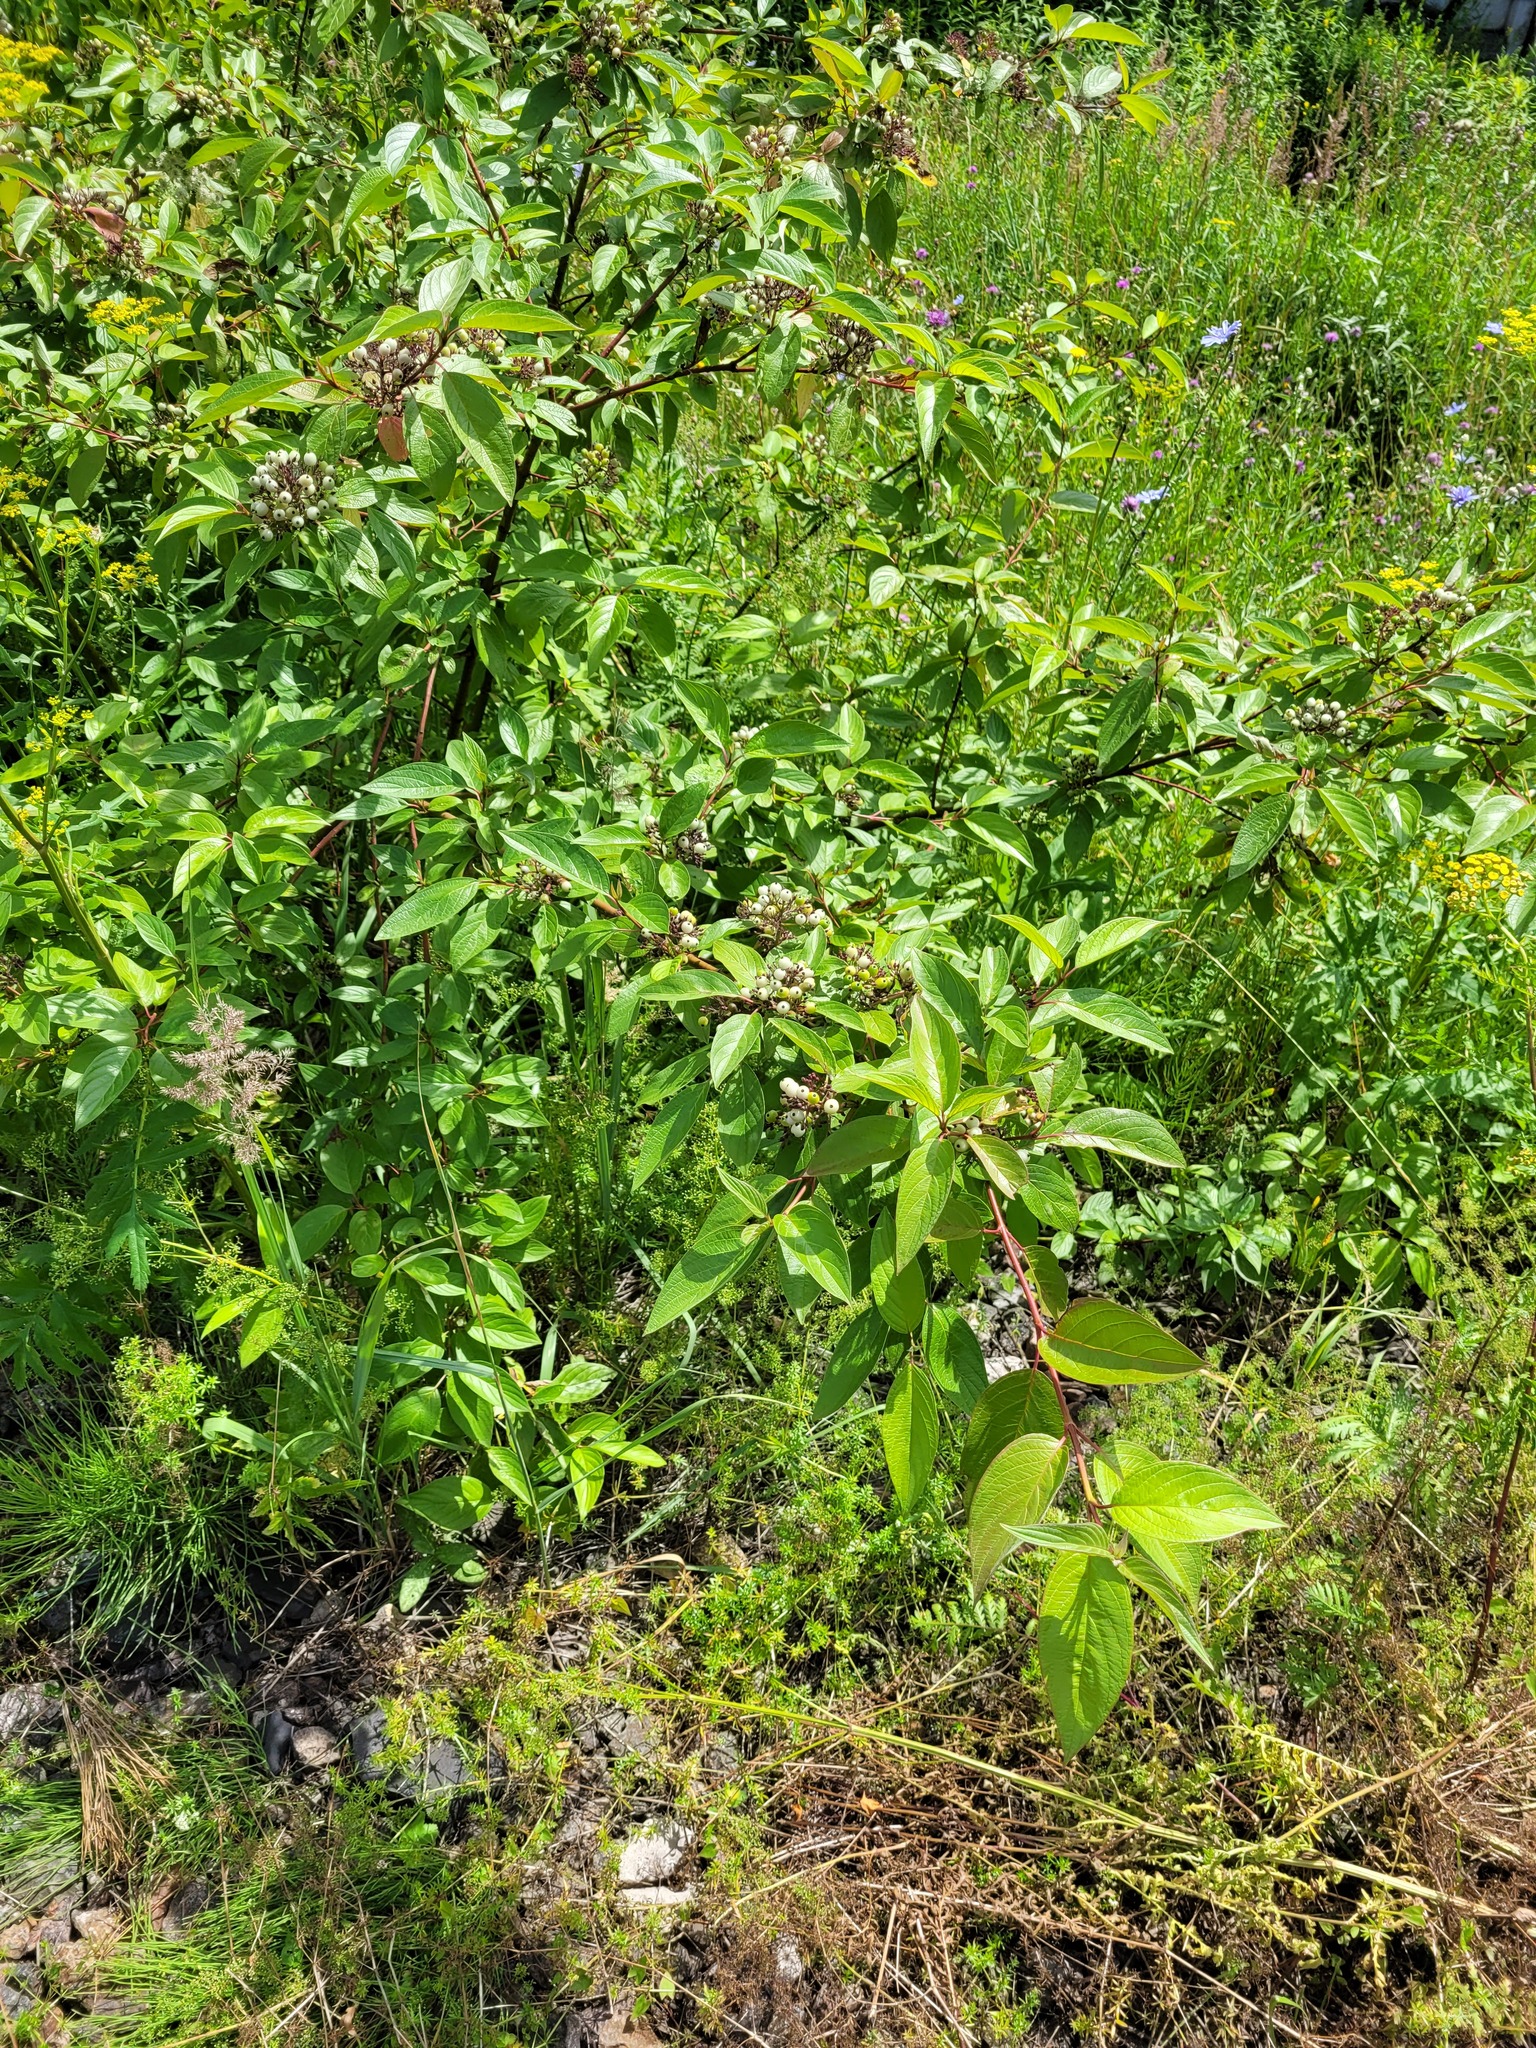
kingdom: Plantae
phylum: Tracheophyta
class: Magnoliopsida
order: Cornales
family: Cornaceae
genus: Cornus
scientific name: Cornus alba
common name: White dogwood
